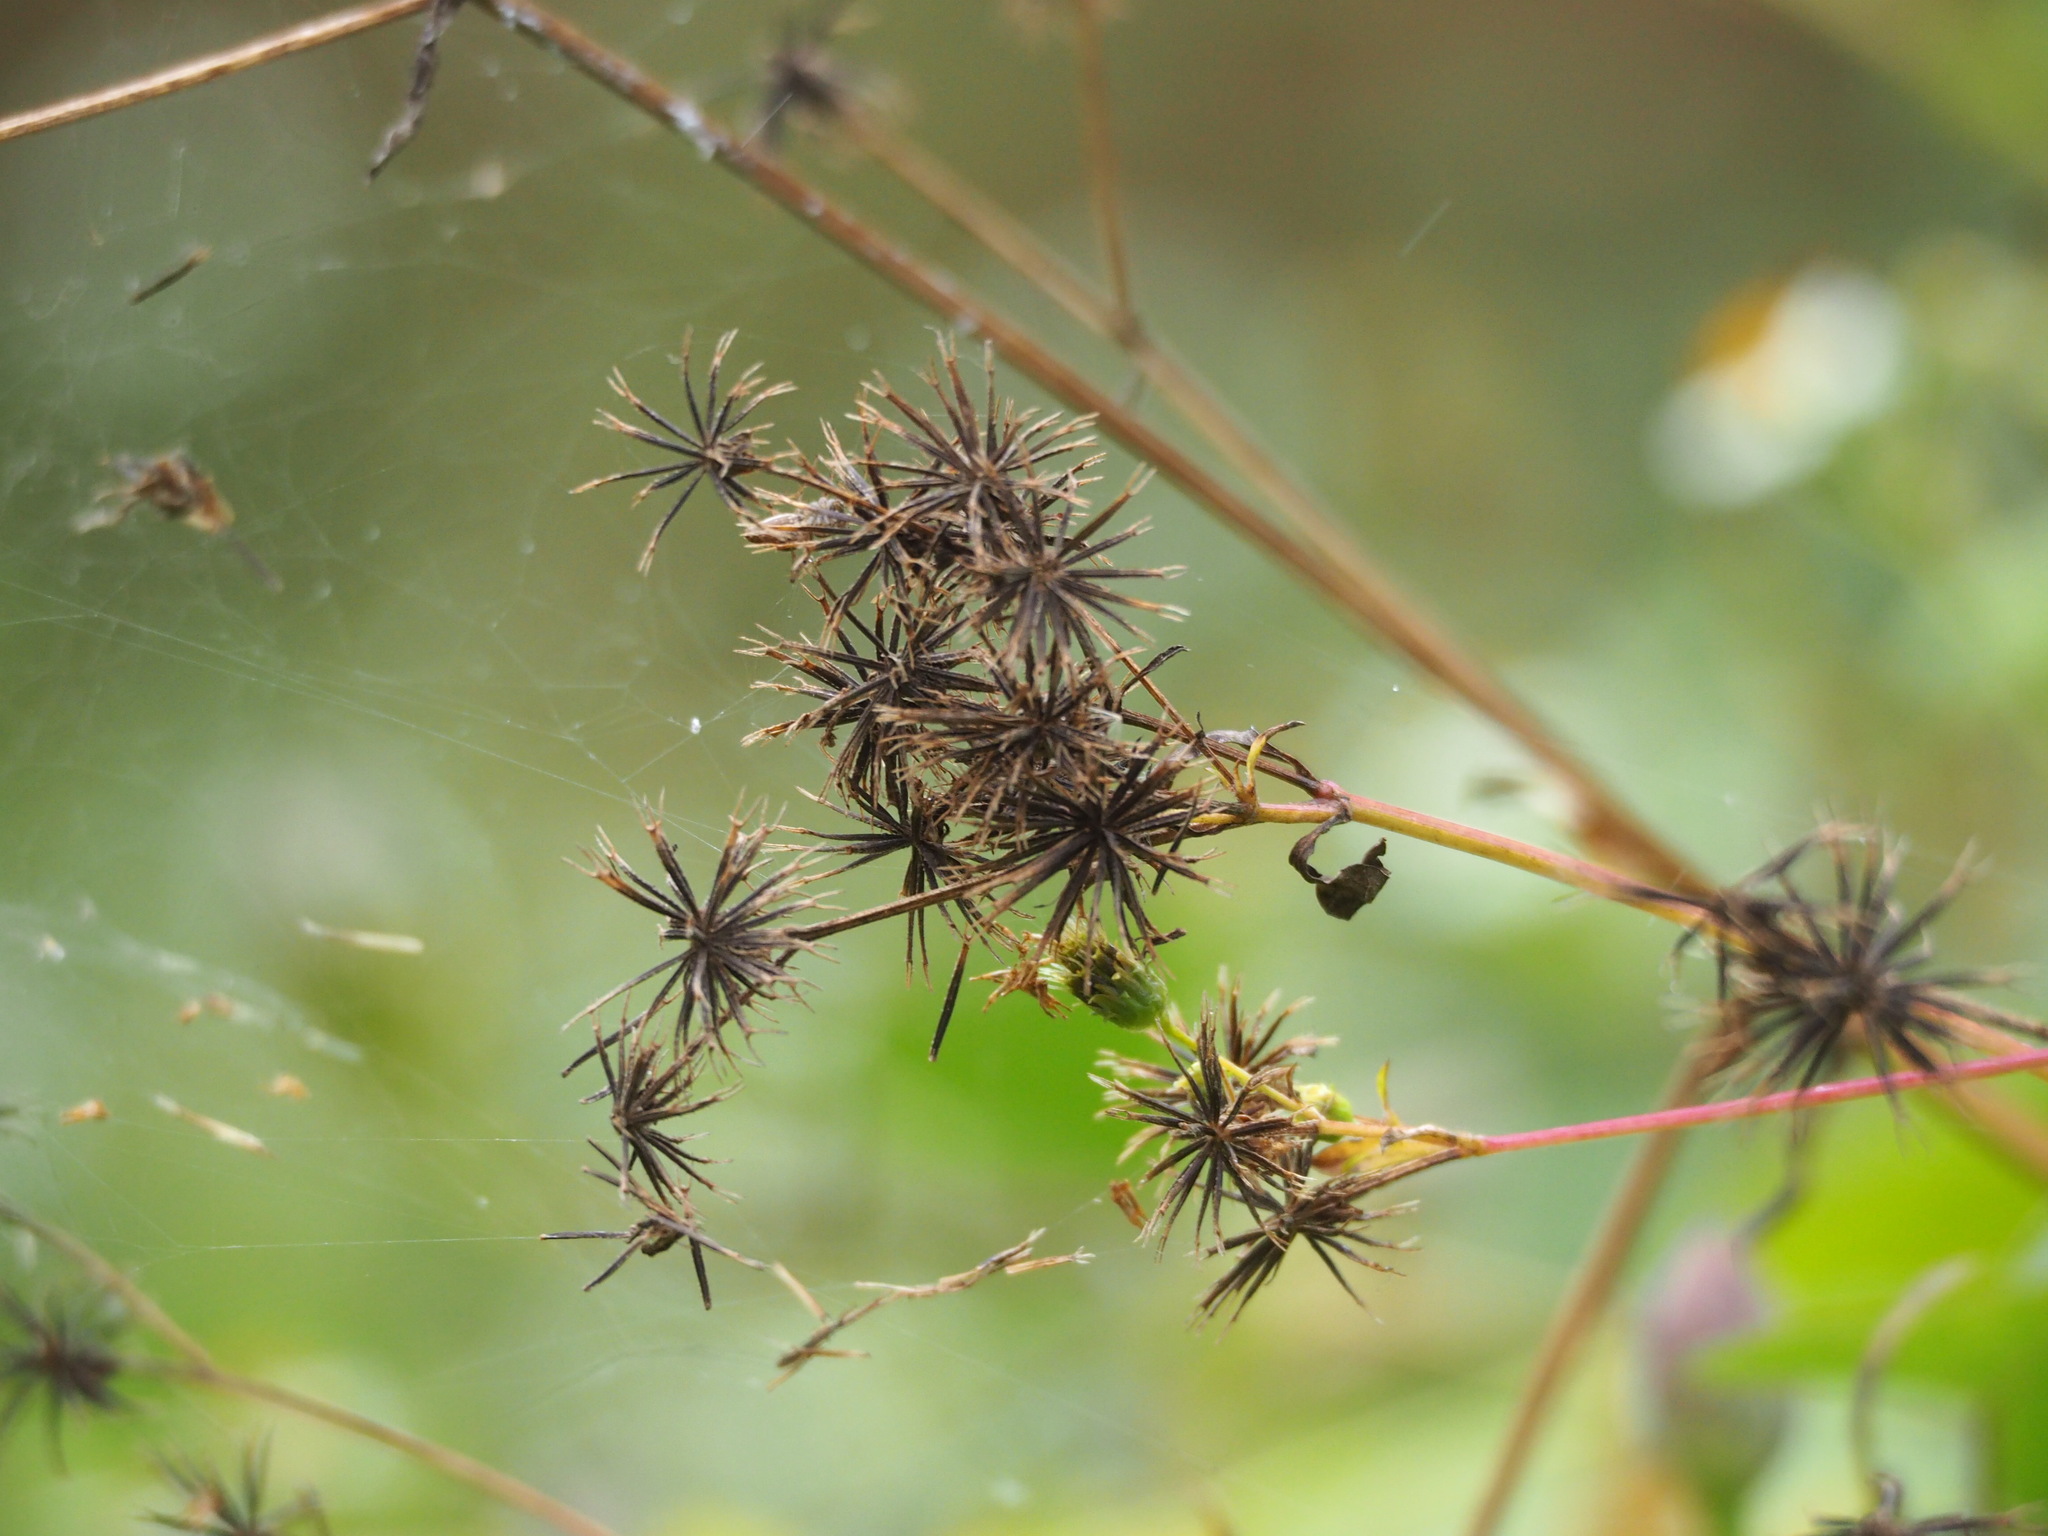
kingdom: Plantae
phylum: Tracheophyta
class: Magnoliopsida
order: Asterales
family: Asteraceae
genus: Bidens
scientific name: Bidens alba
